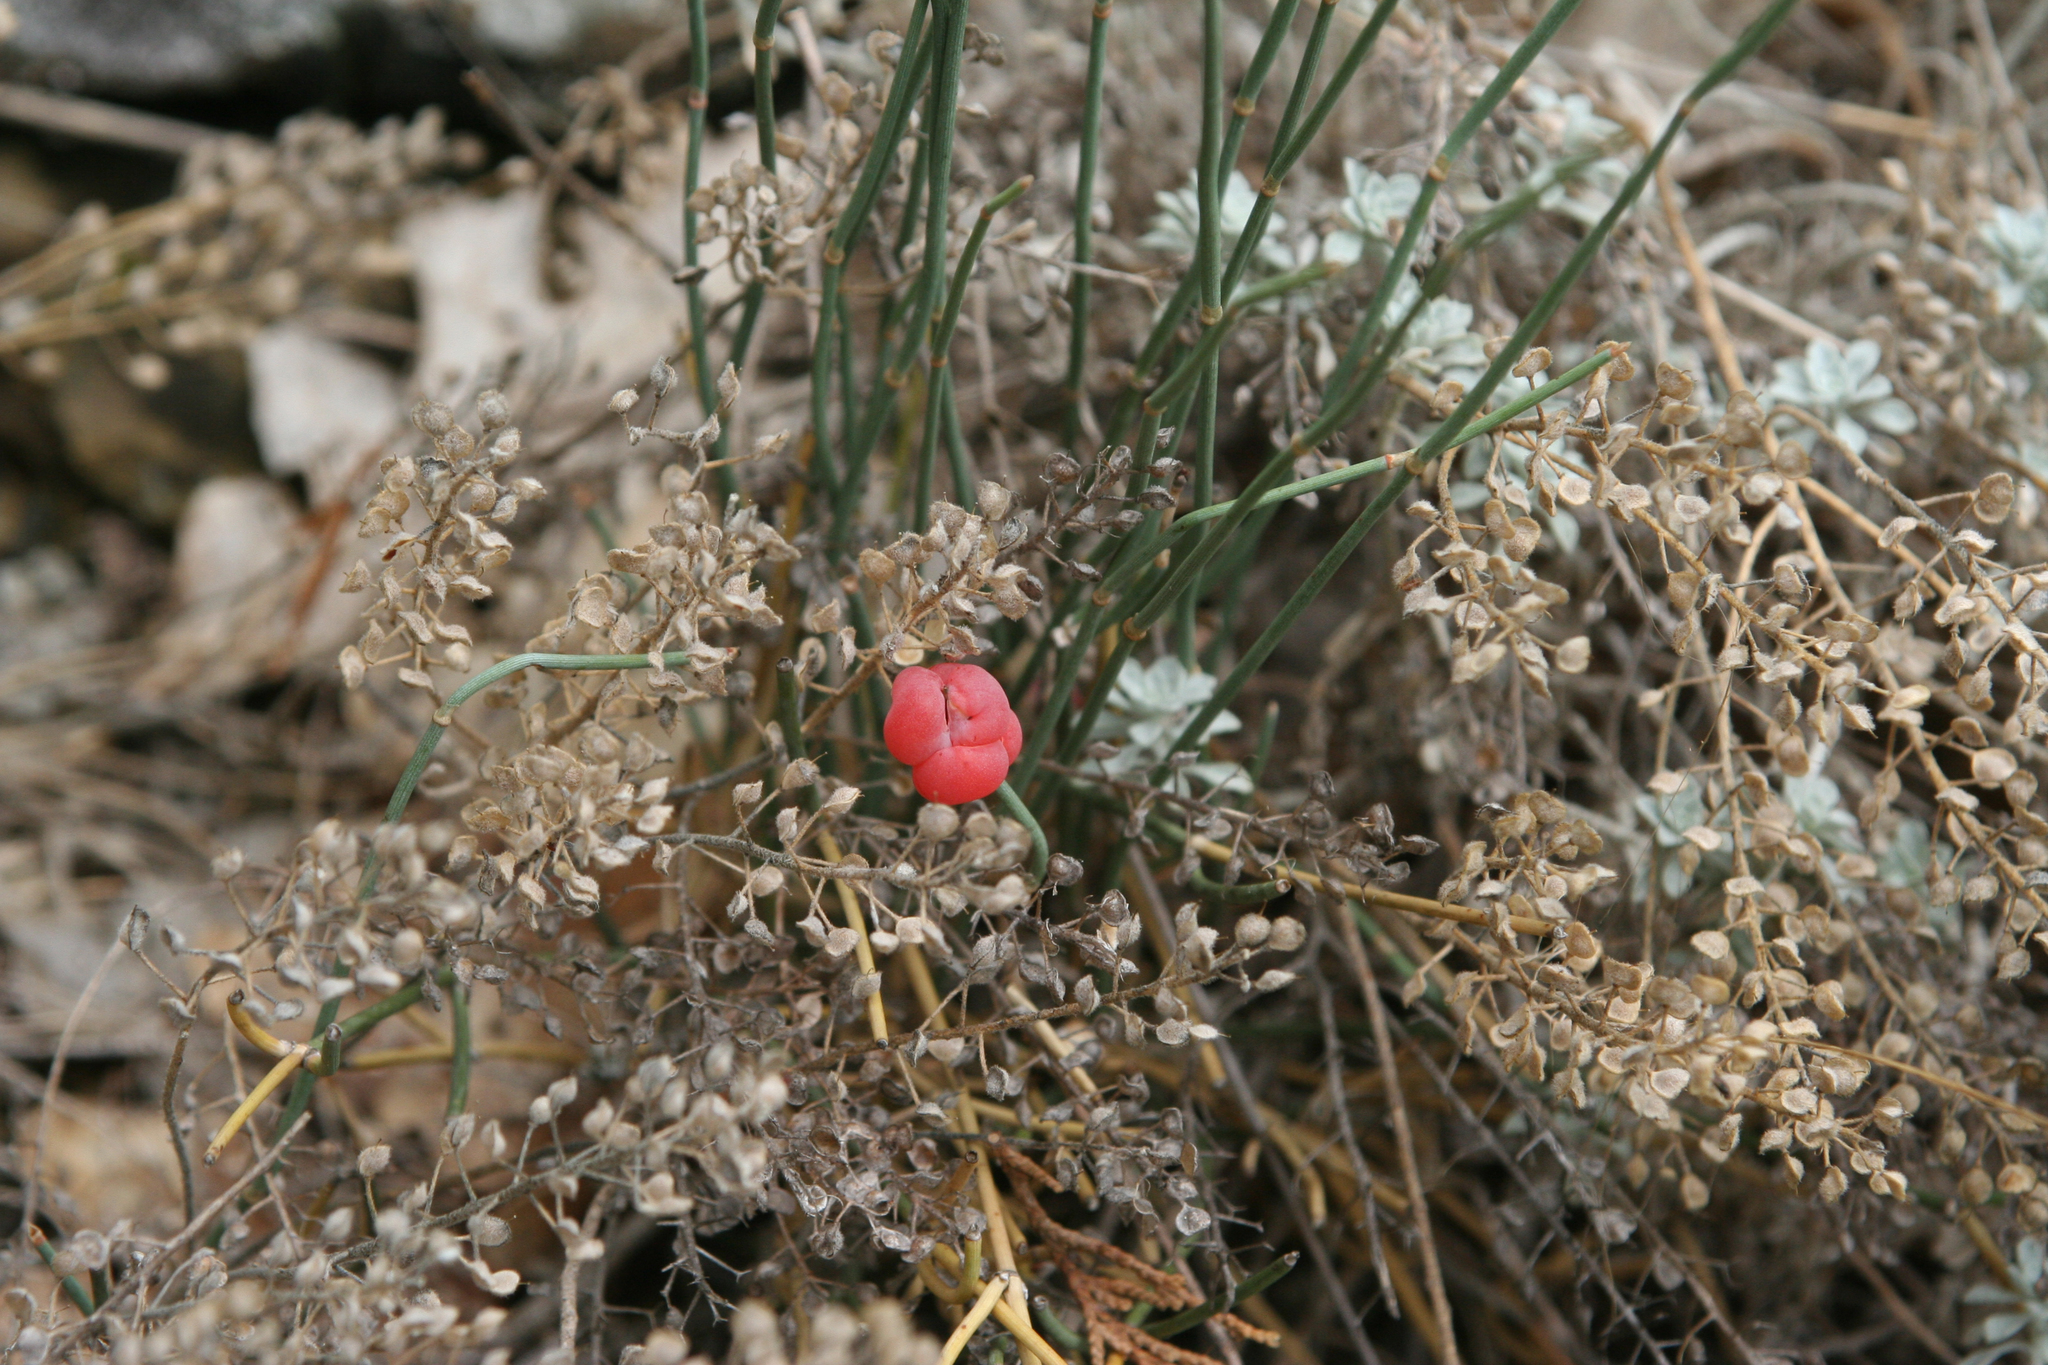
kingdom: Plantae
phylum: Tracheophyta
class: Gnetopsida
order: Ephedrales
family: Ephedraceae
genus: Ephedra
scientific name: Ephedra distachya
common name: Sea grape
